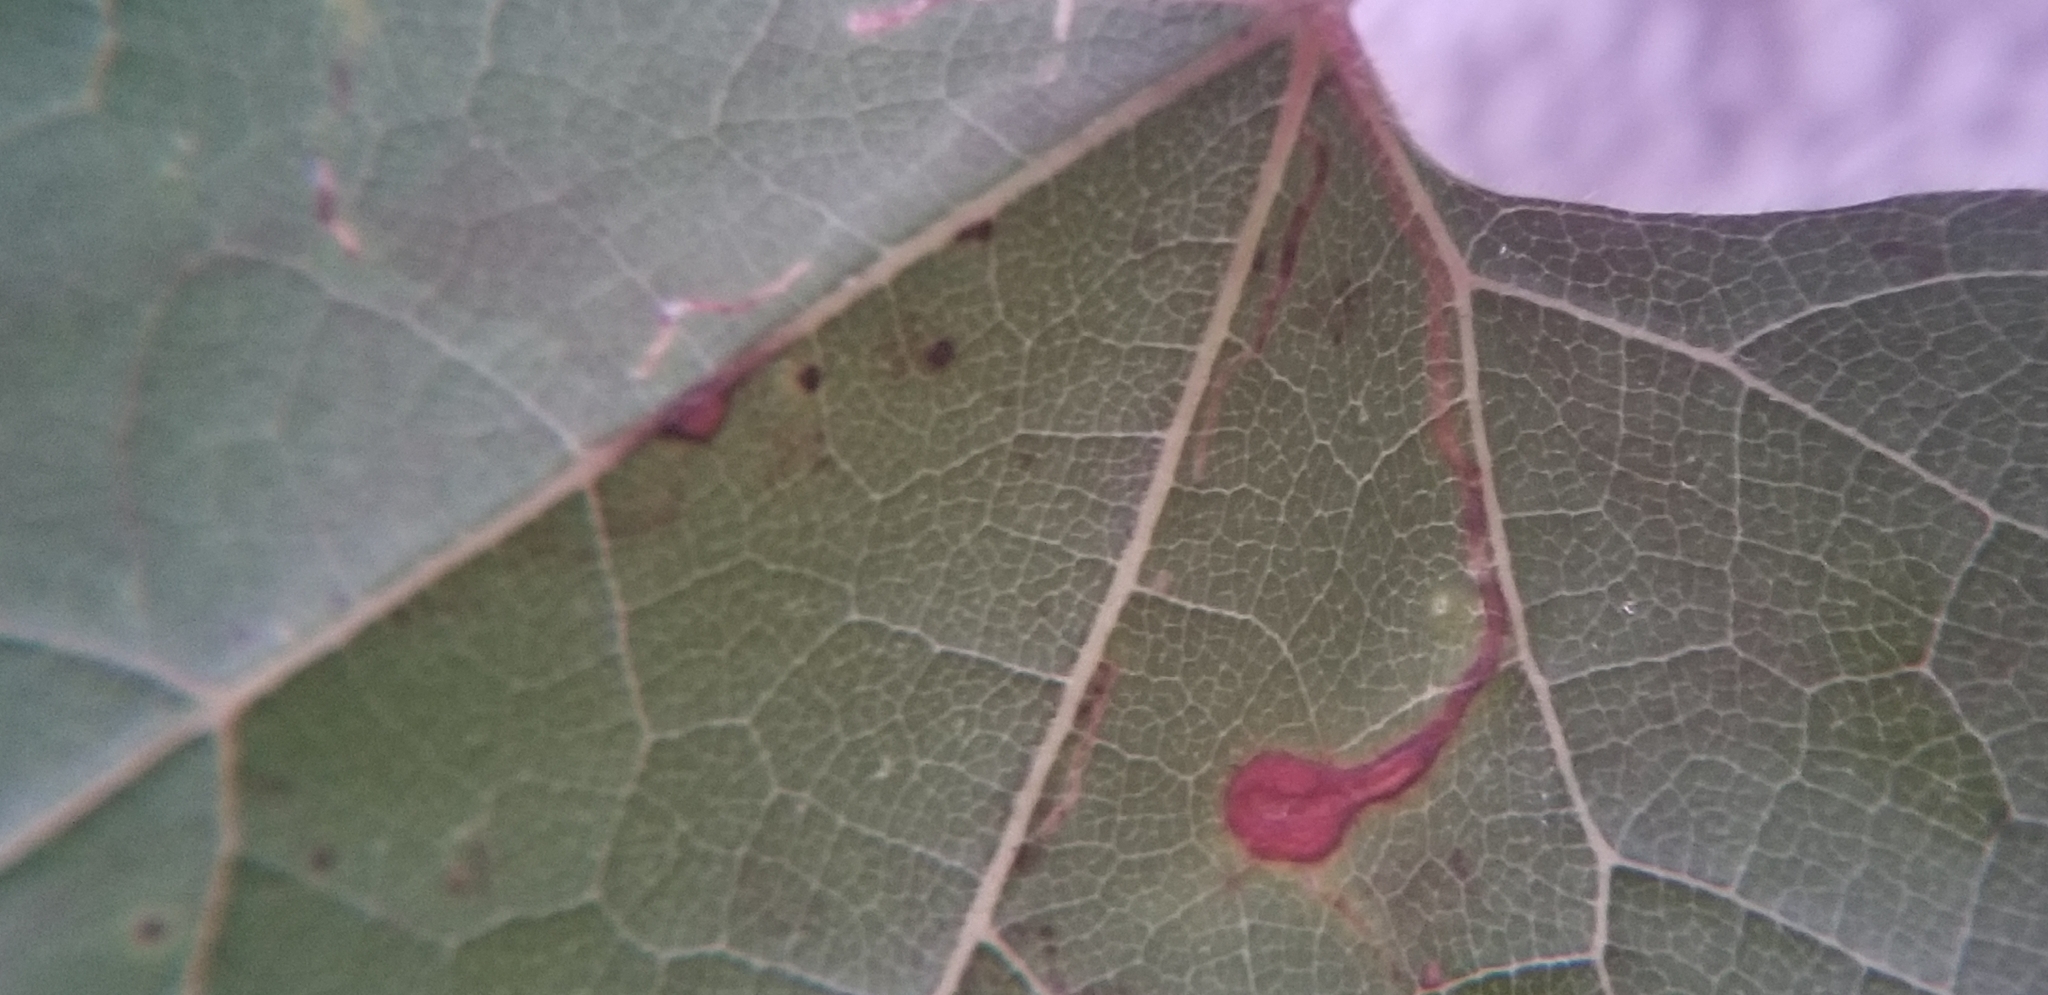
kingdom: Animalia
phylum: Arthropoda
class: Insecta
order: Lepidoptera
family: Gracillariidae
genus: Phyllocnistis
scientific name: Phyllocnistis vitifoliella
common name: Grape leaf-miner moth
